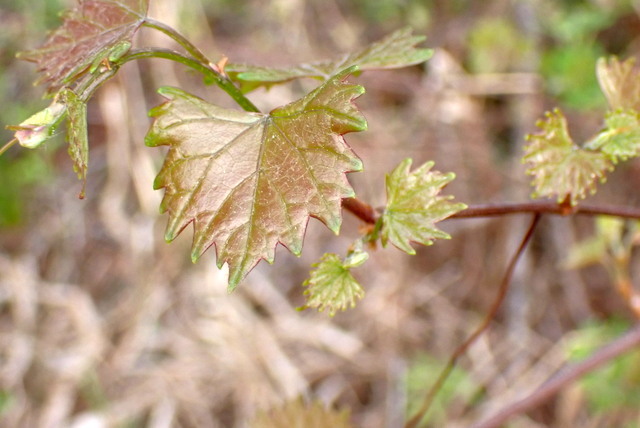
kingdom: Plantae
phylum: Tracheophyta
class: Magnoliopsida
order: Vitales
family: Vitaceae
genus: Vitis
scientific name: Vitis rotundifolia
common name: Muscadine grape
